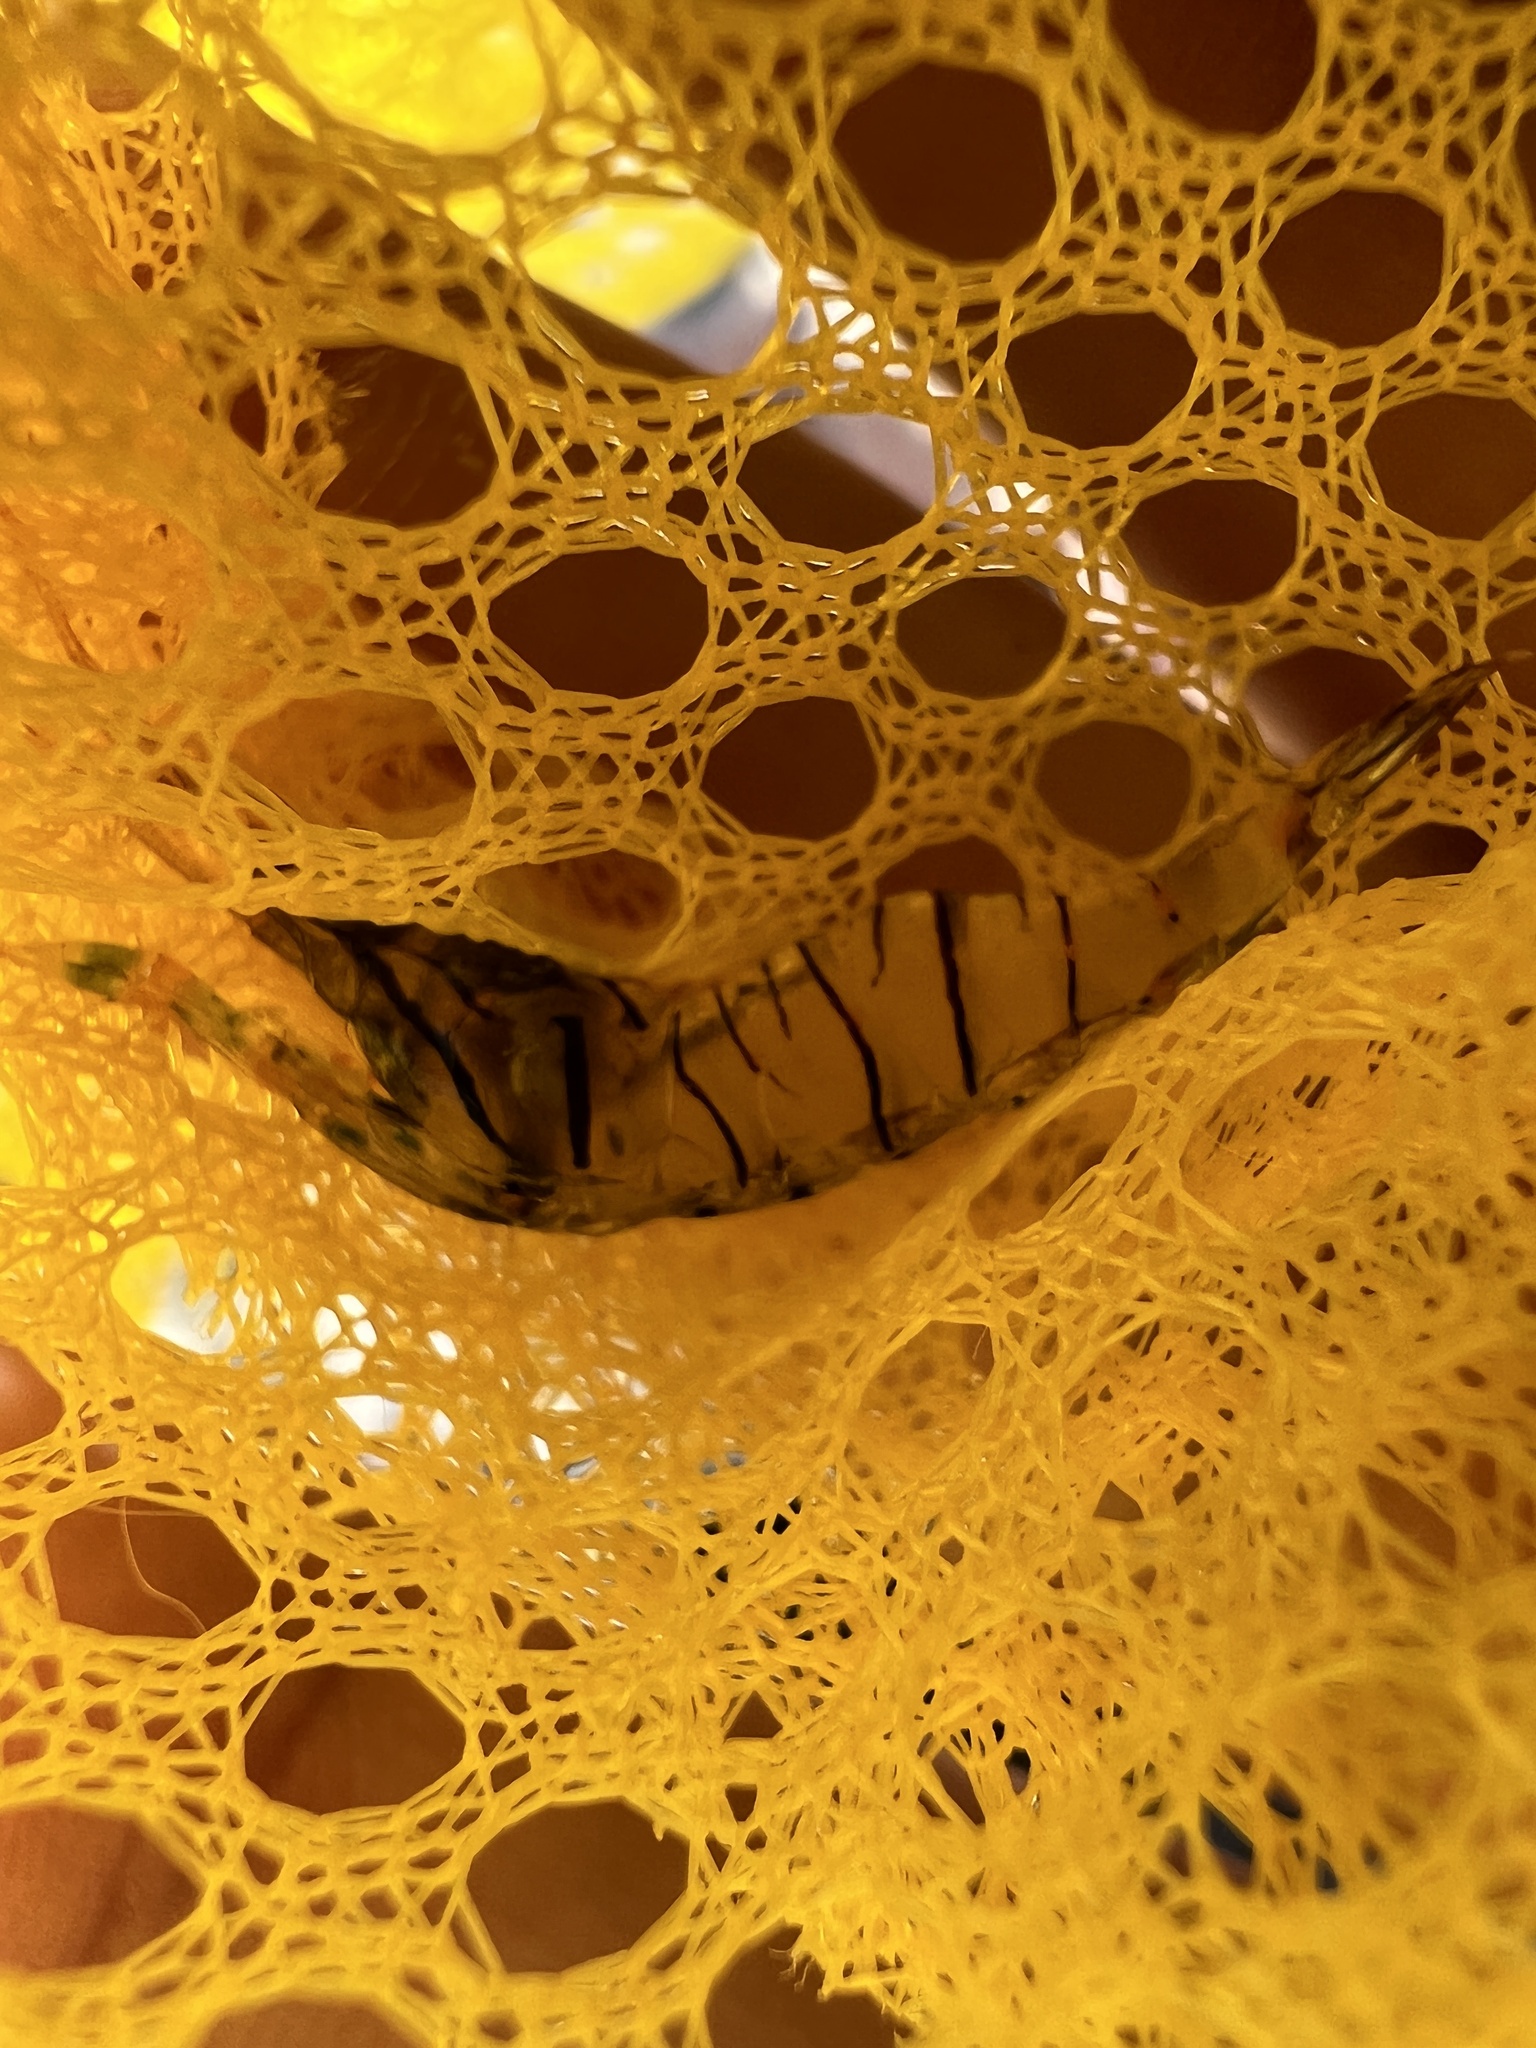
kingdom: Animalia
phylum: Arthropoda
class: Malacostraca
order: Decapoda
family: Palaemonidae
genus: Palaemon
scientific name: Palaemon elegans
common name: Grass prawm
